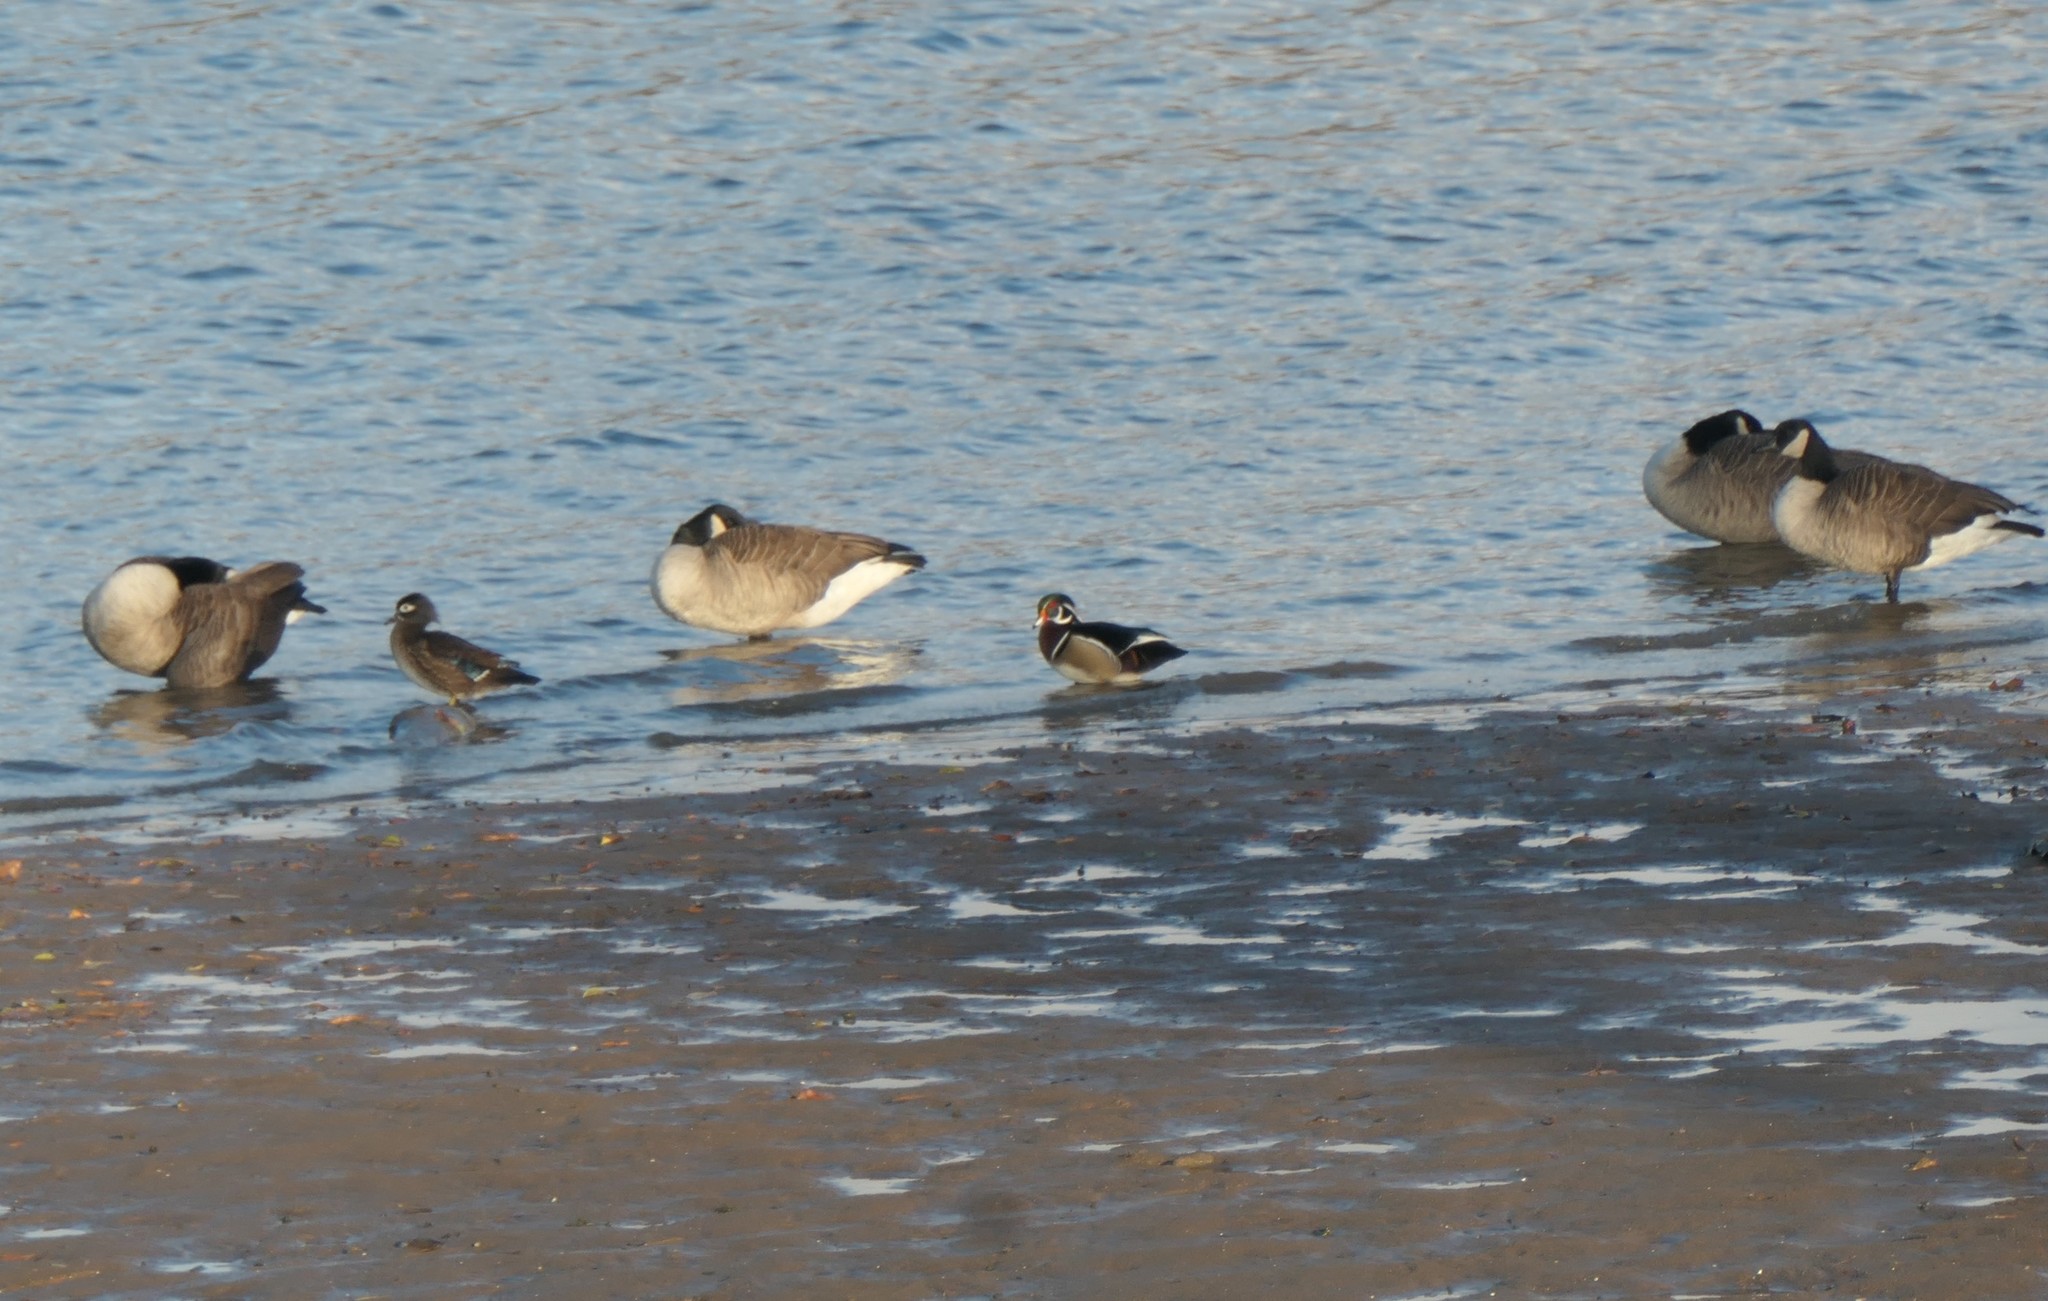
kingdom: Animalia
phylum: Chordata
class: Aves
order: Anseriformes
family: Anatidae
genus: Aix
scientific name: Aix sponsa
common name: Wood duck
